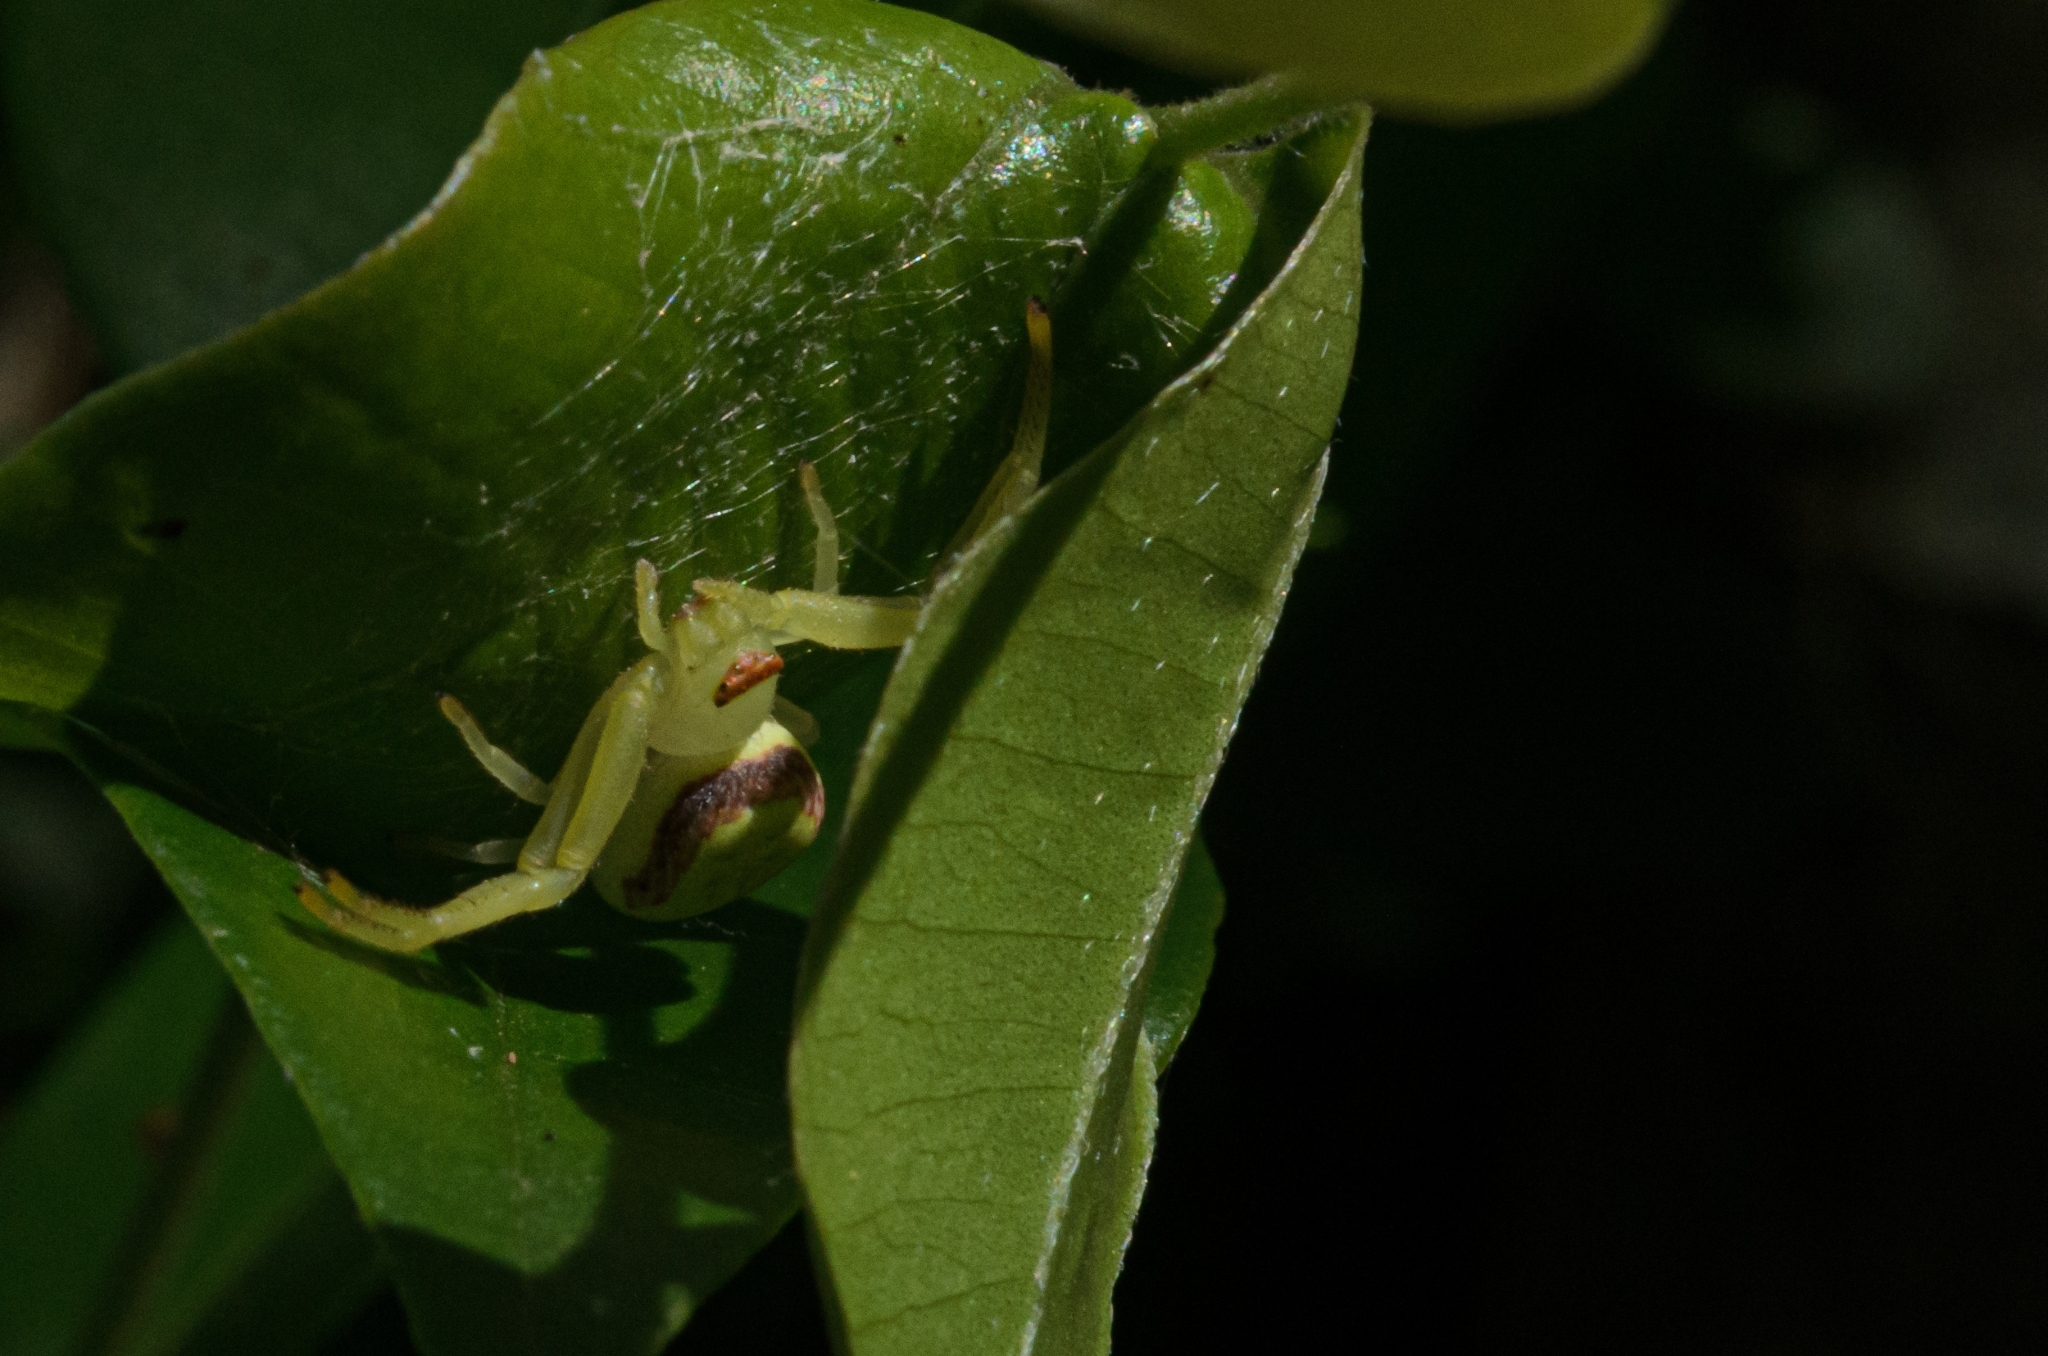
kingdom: Animalia
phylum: Arthropoda
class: Arachnida
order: Araneae
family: Thomisidae
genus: Misumenops
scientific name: Misumenops callinurus
